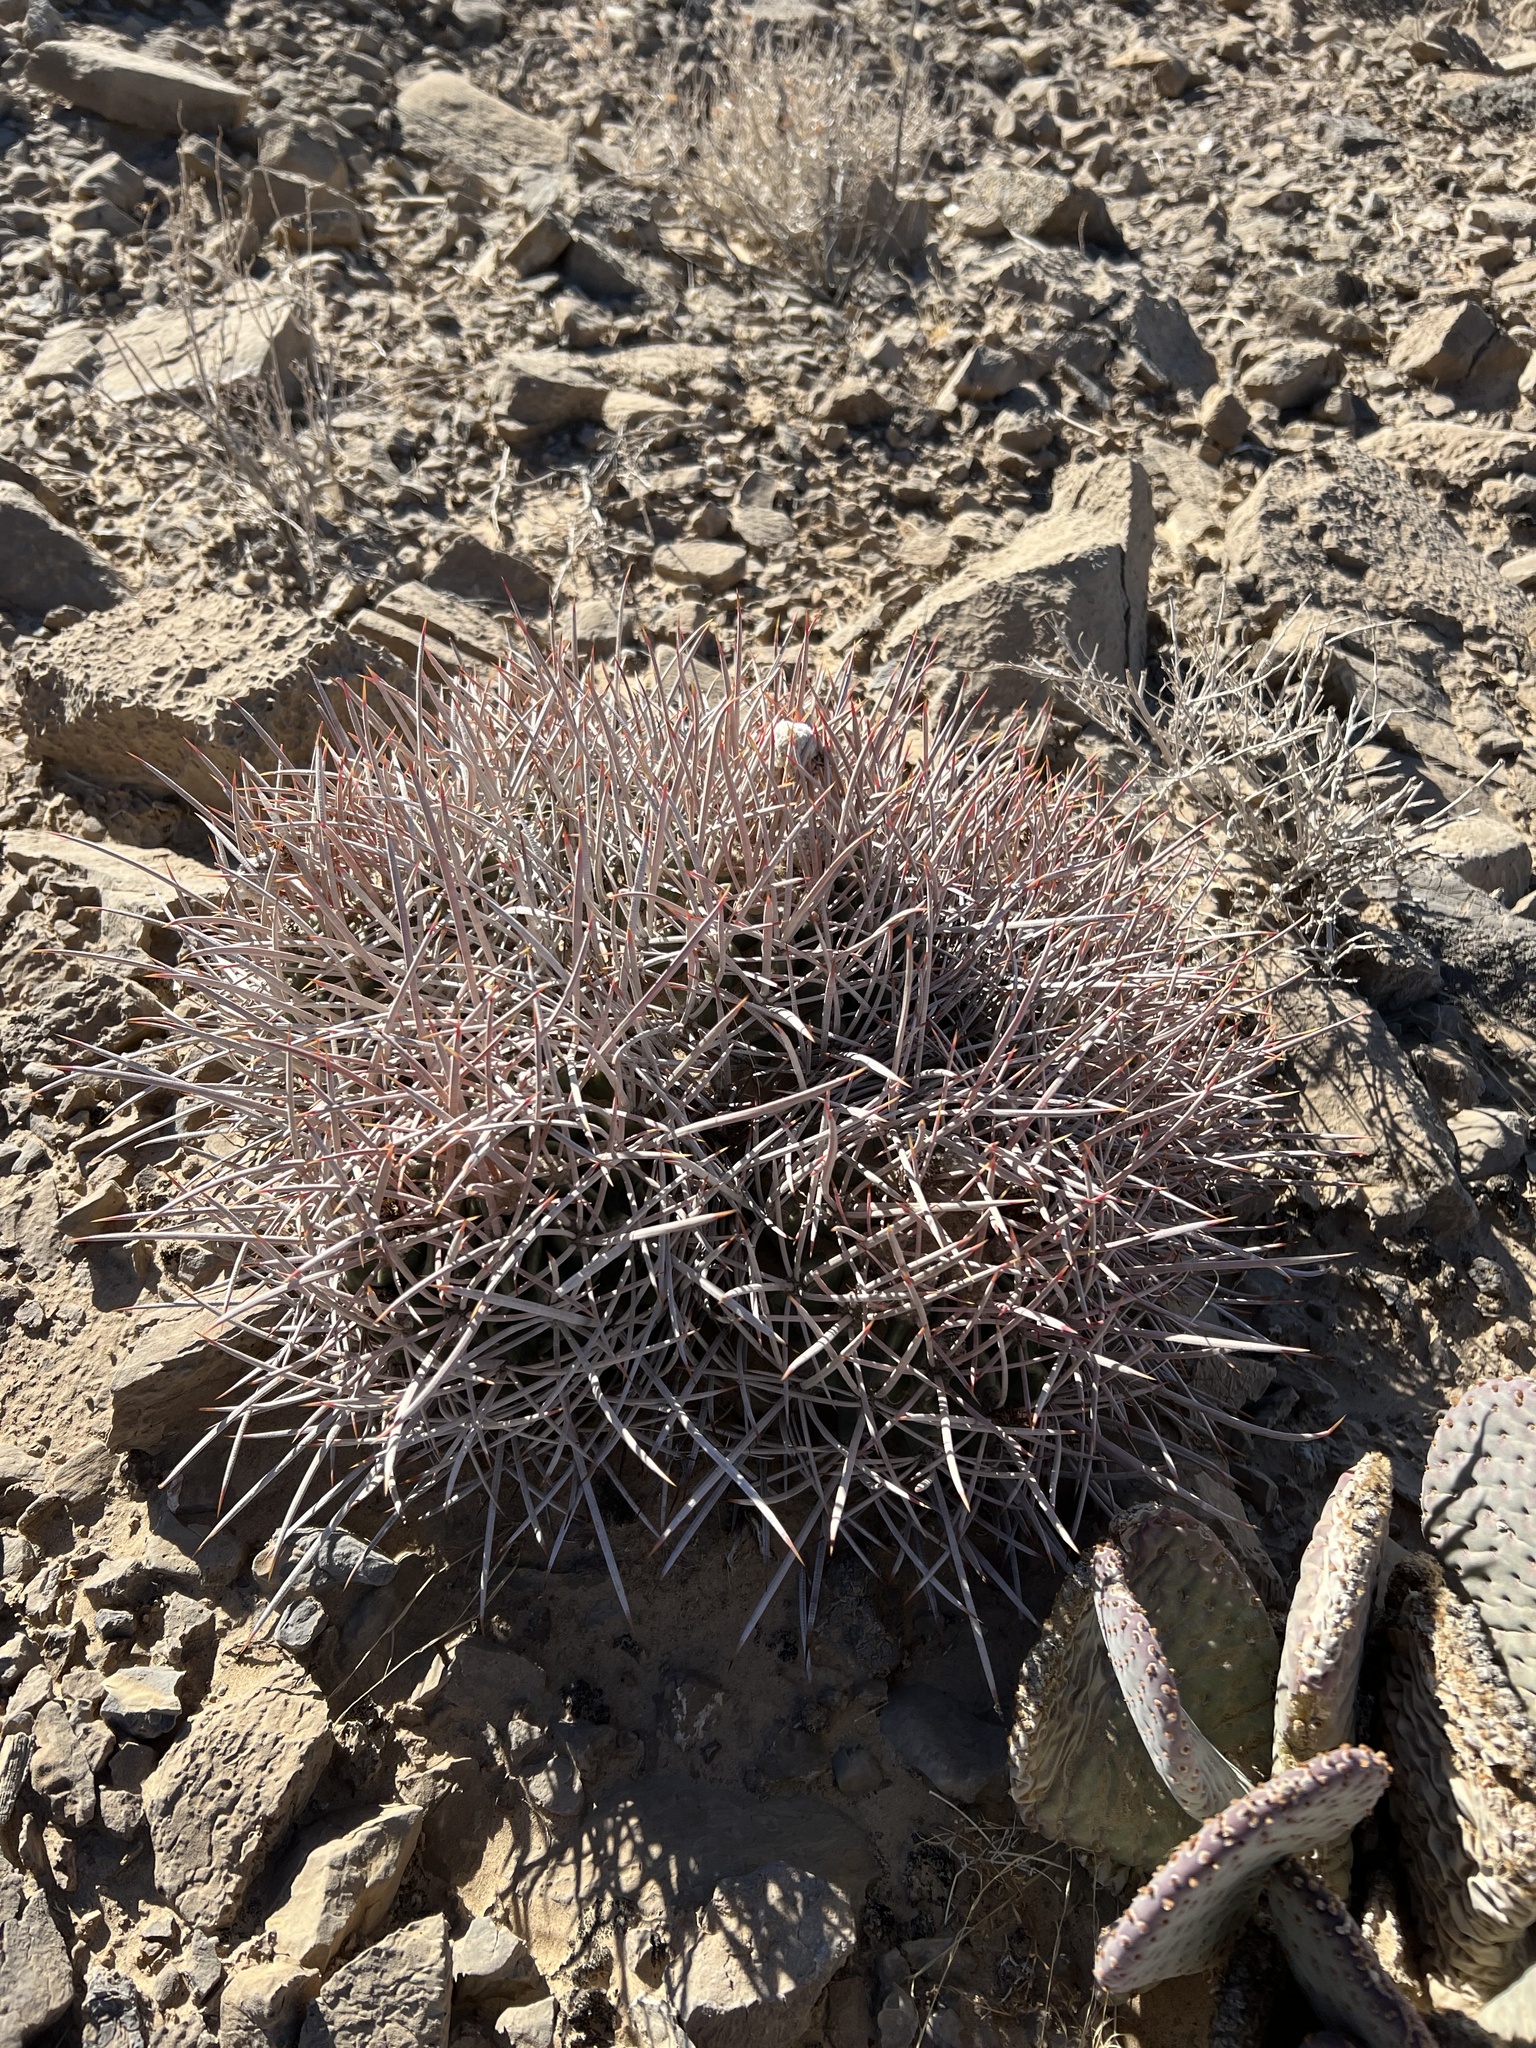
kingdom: Plantae
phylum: Tracheophyta
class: Magnoliopsida
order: Caryophyllales
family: Cactaceae
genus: Echinocactus
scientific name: Echinocactus polycephalus
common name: Cottontop cactus
